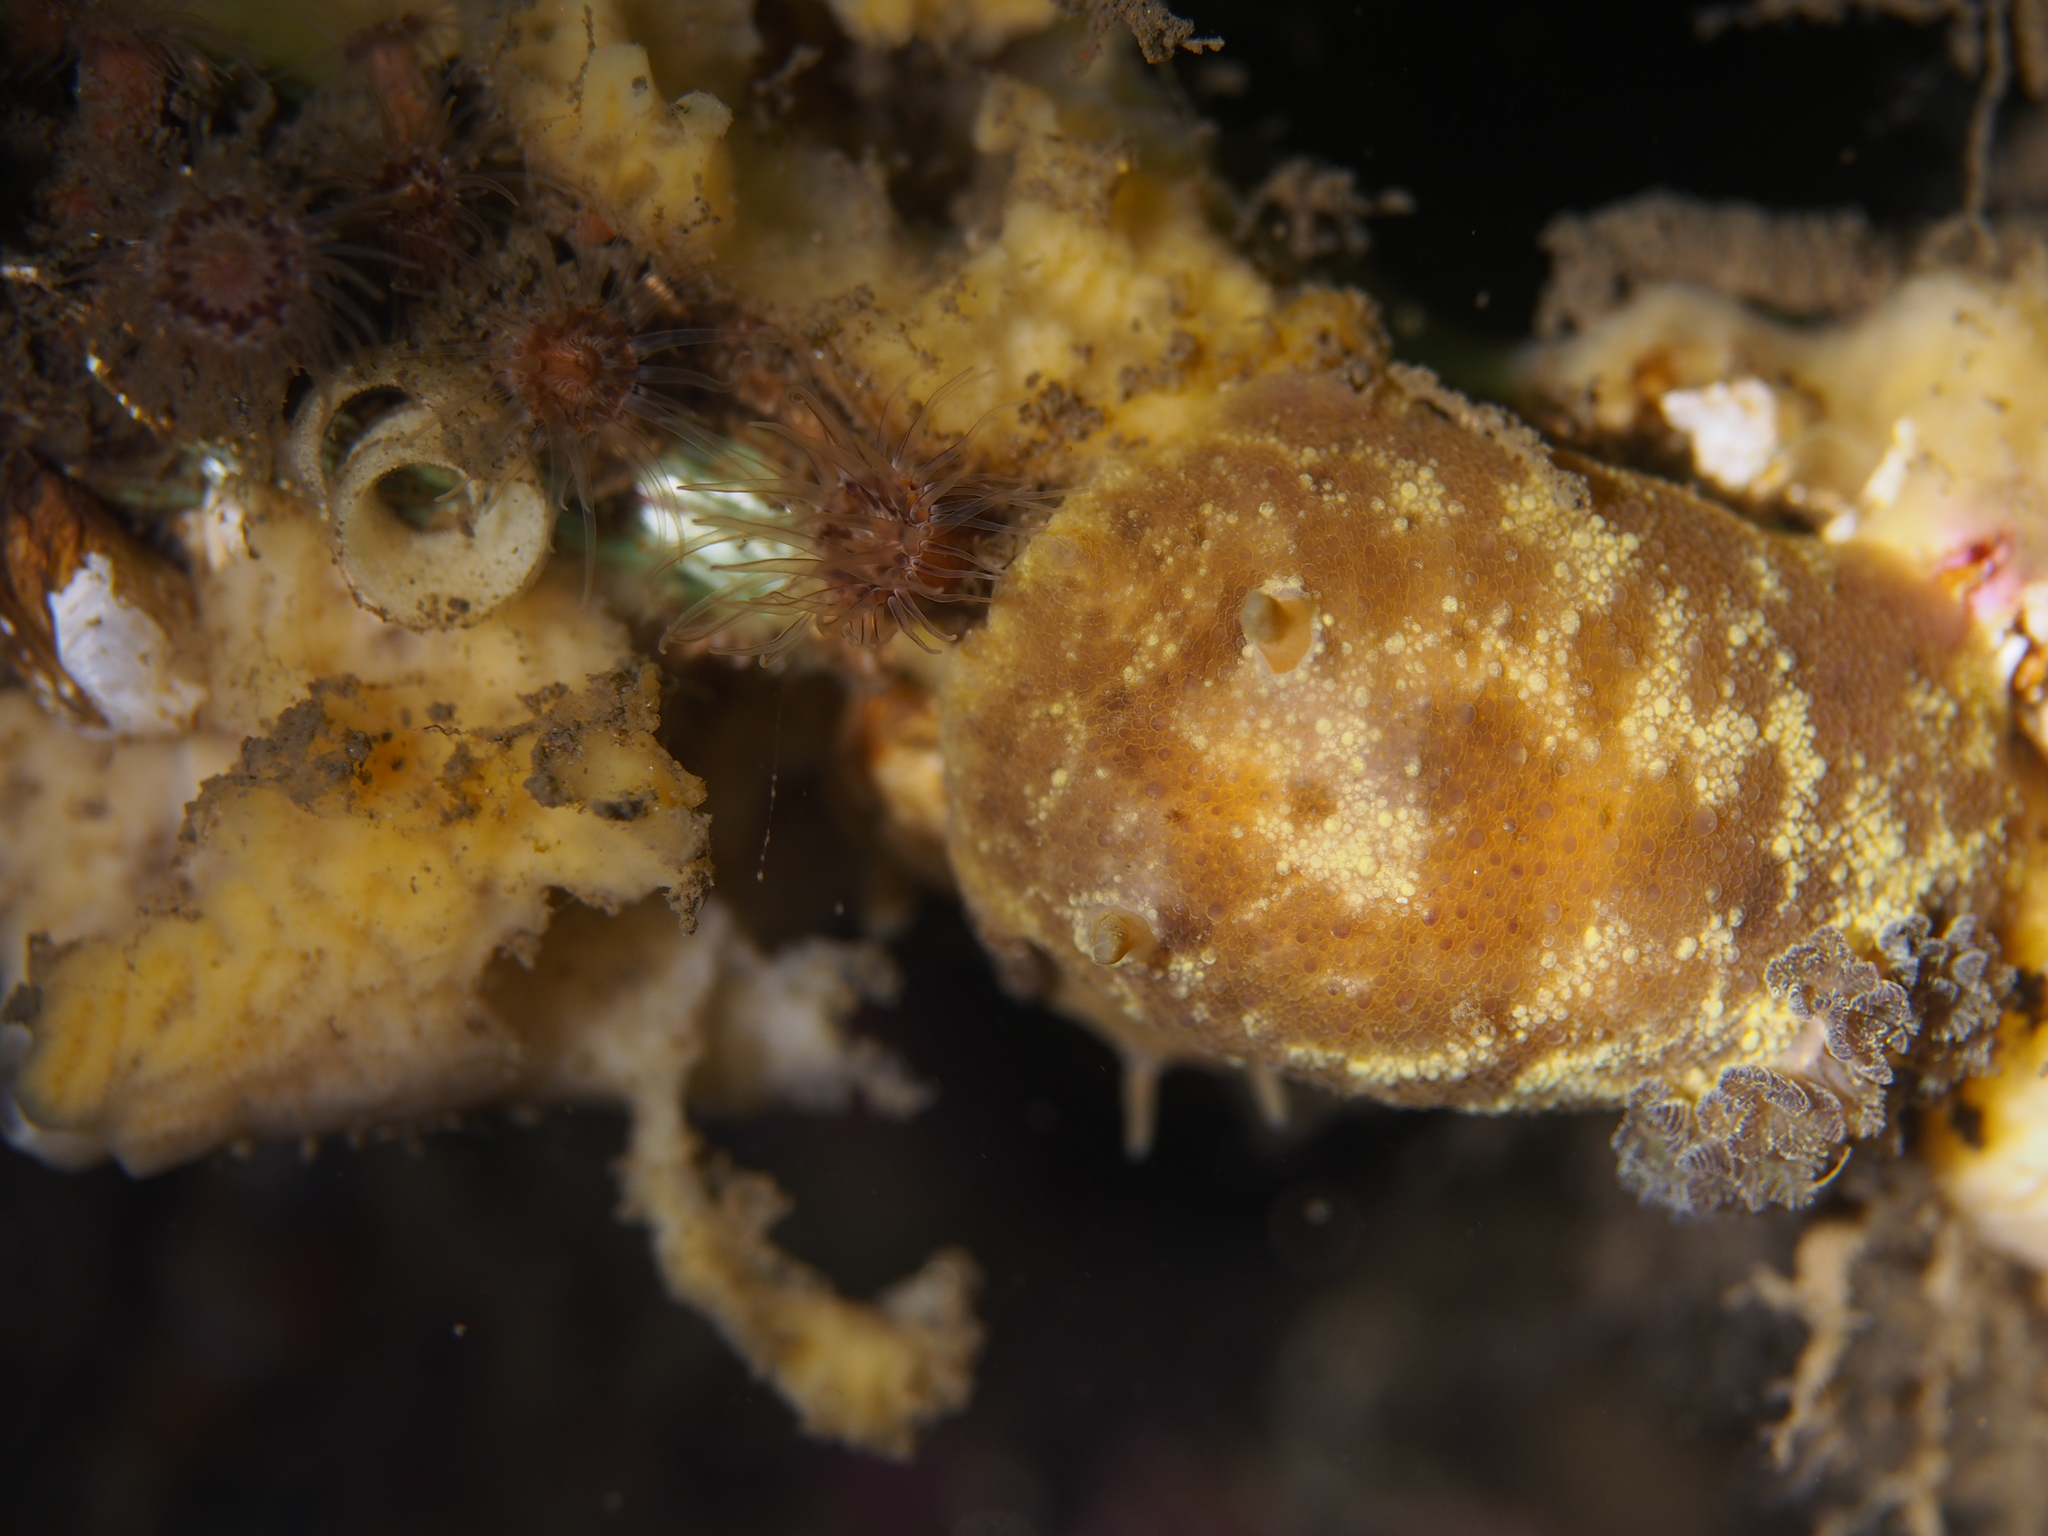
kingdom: Animalia
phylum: Mollusca
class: Gastropoda
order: Nudibranchia
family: Dorididae
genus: Doris
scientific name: Doris pseudoargus
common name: Sea lemon
